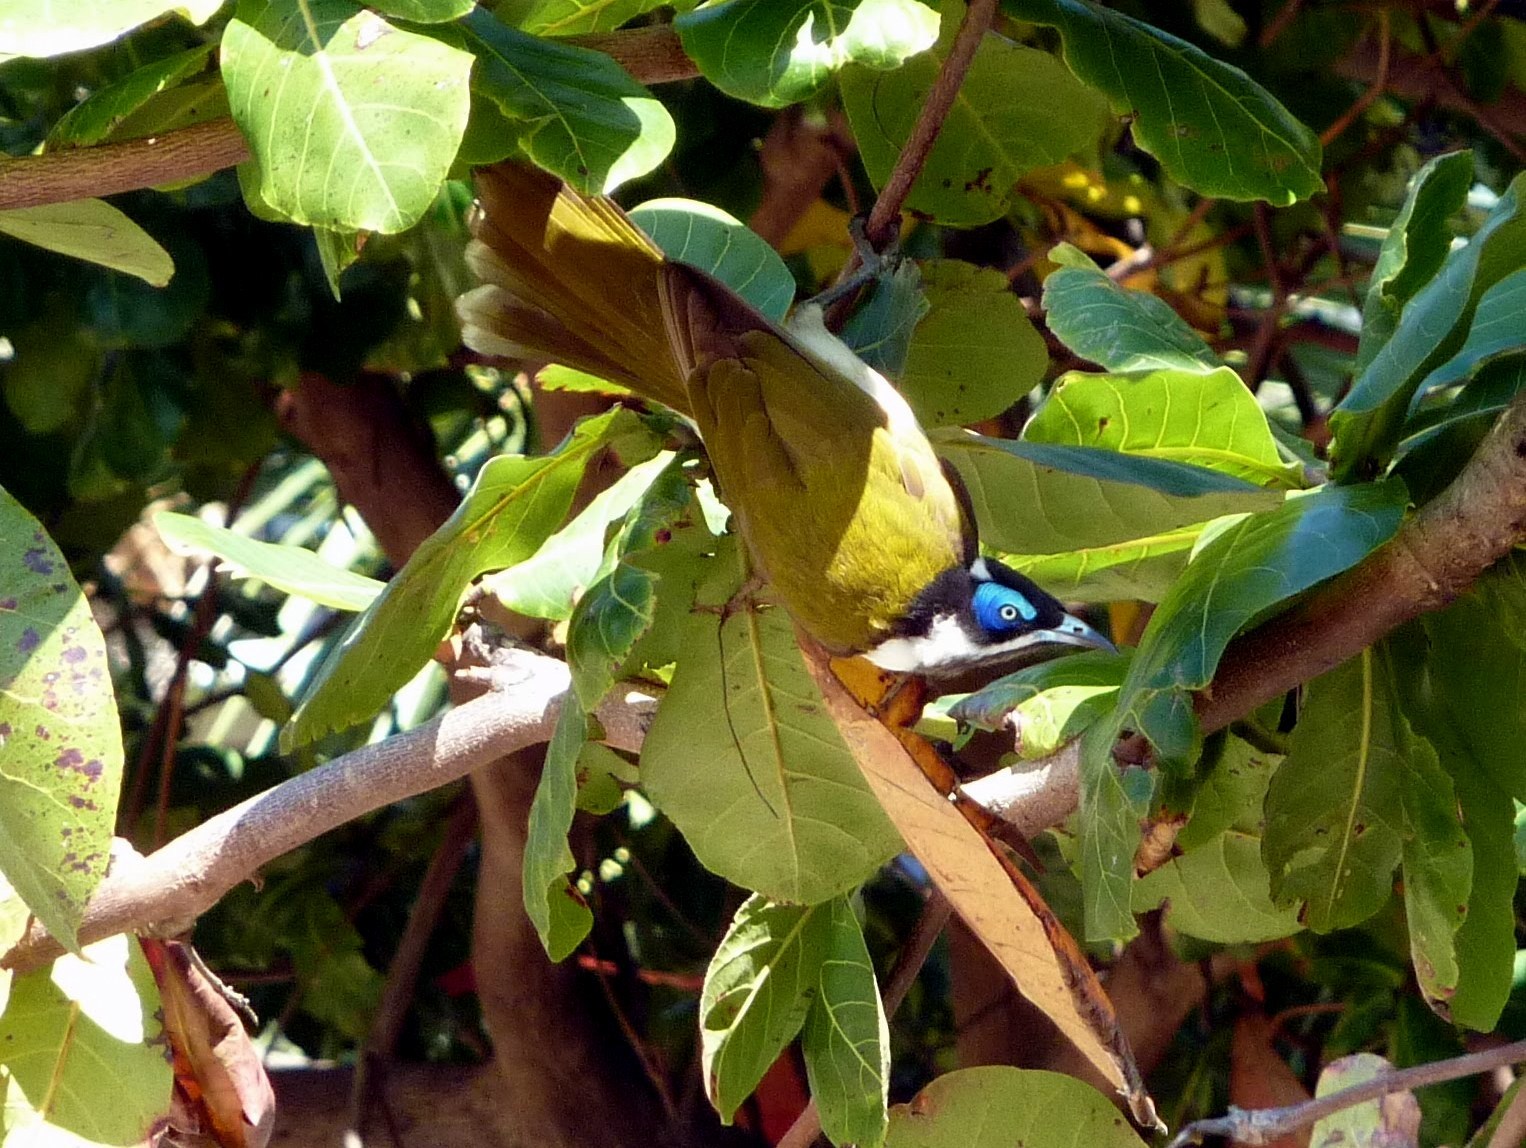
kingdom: Animalia
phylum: Chordata
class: Aves
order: Passeriformes
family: Meliphagidae
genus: Entomyzon
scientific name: Entomyzon cyanotis
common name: Blue-faced honeyeater
